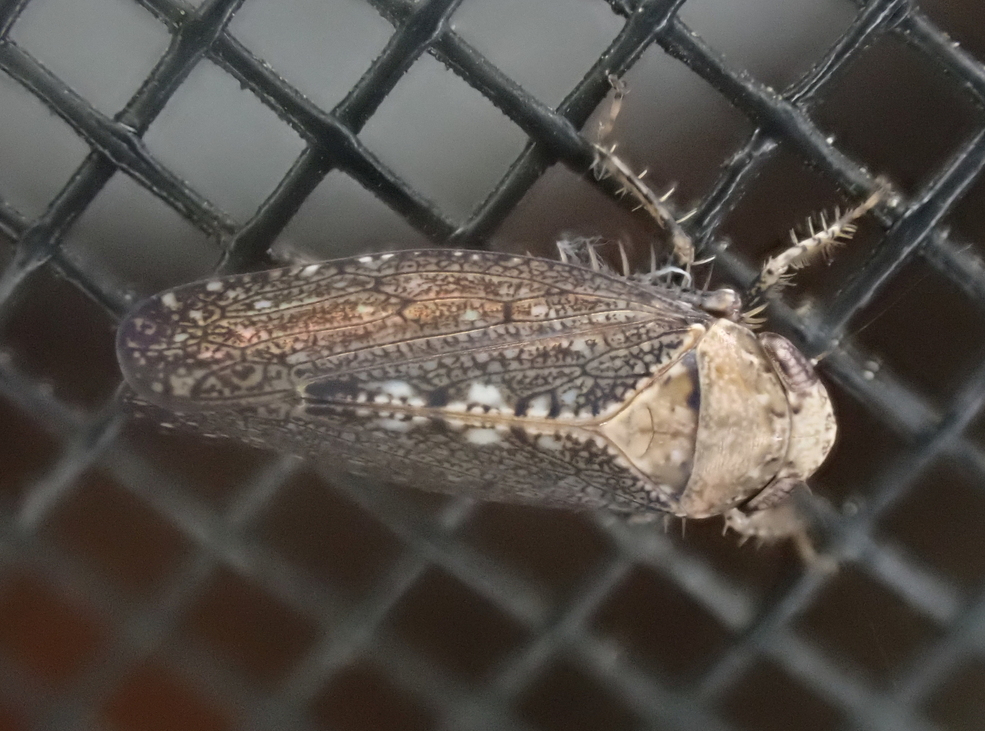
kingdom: Animalia
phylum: Arthropoda
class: Insecta
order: Hemiptera
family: Cicadellidae
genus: Excultanus
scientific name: Excultanus excultus
